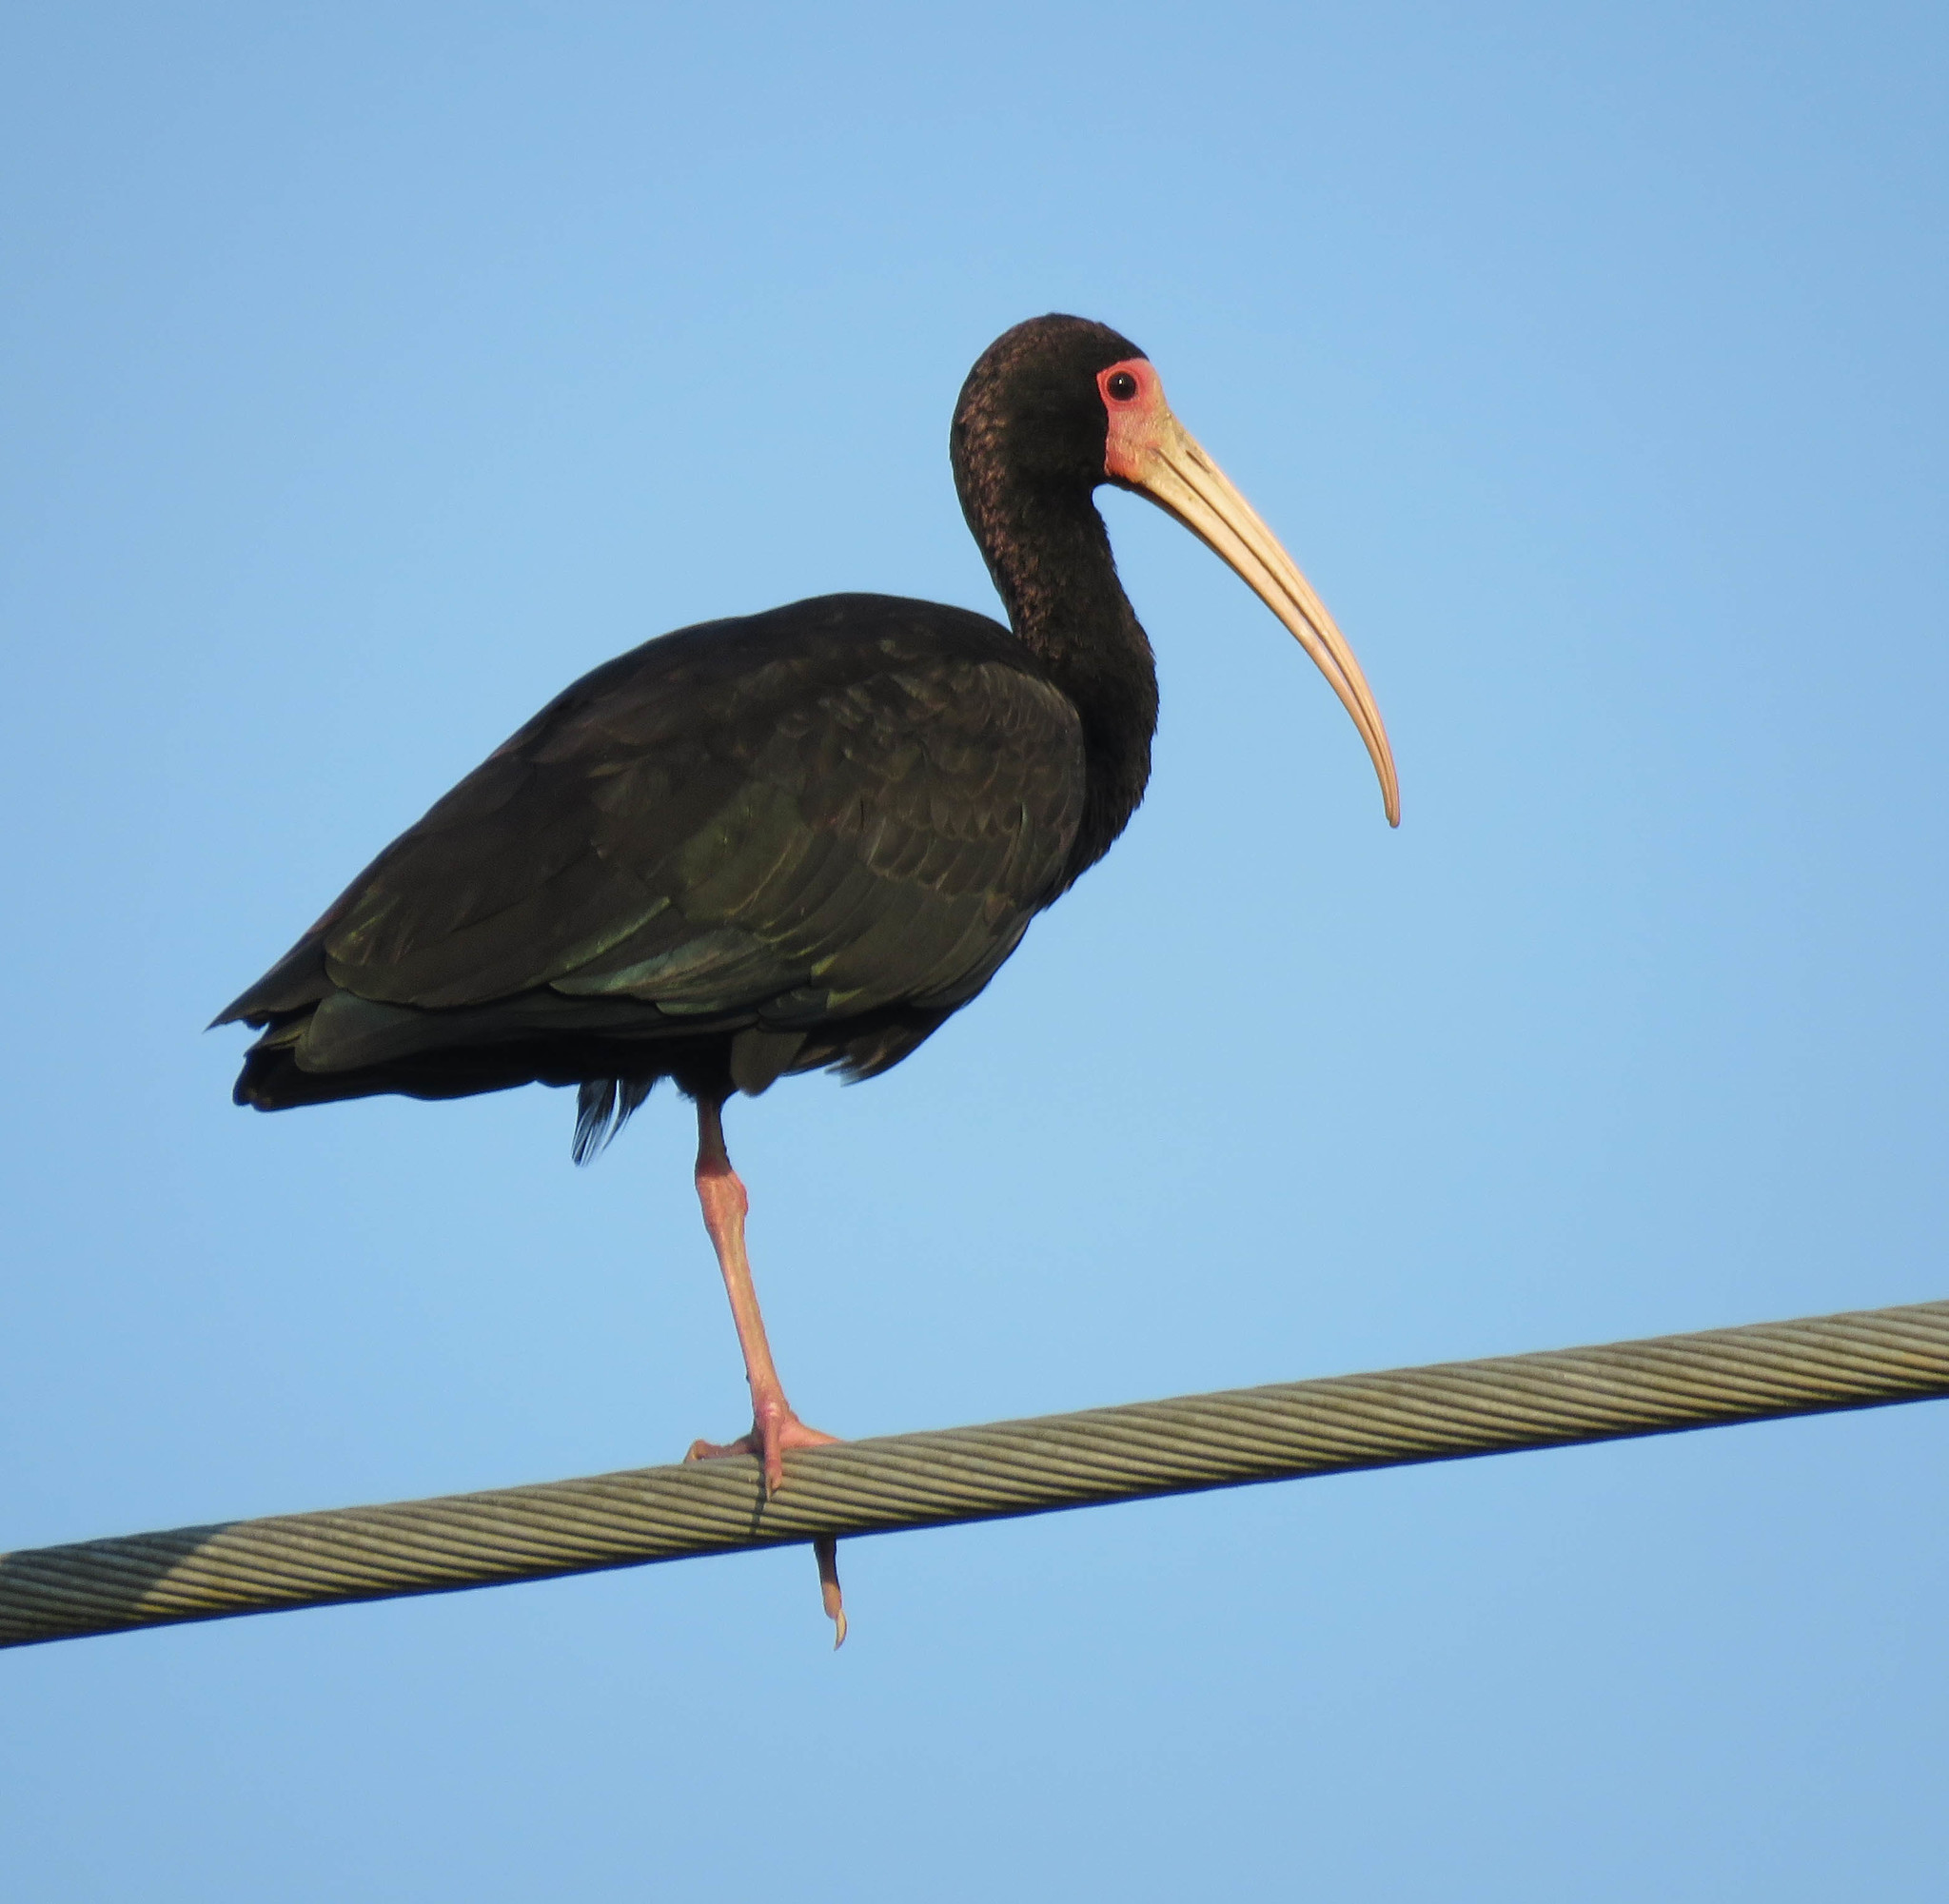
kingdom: Animalia
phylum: Chordata
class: Aves
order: Pelecaniformes
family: Threskiornithidae
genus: Phimosus
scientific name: Phimosus infuscatus
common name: Bare-faced ibis
